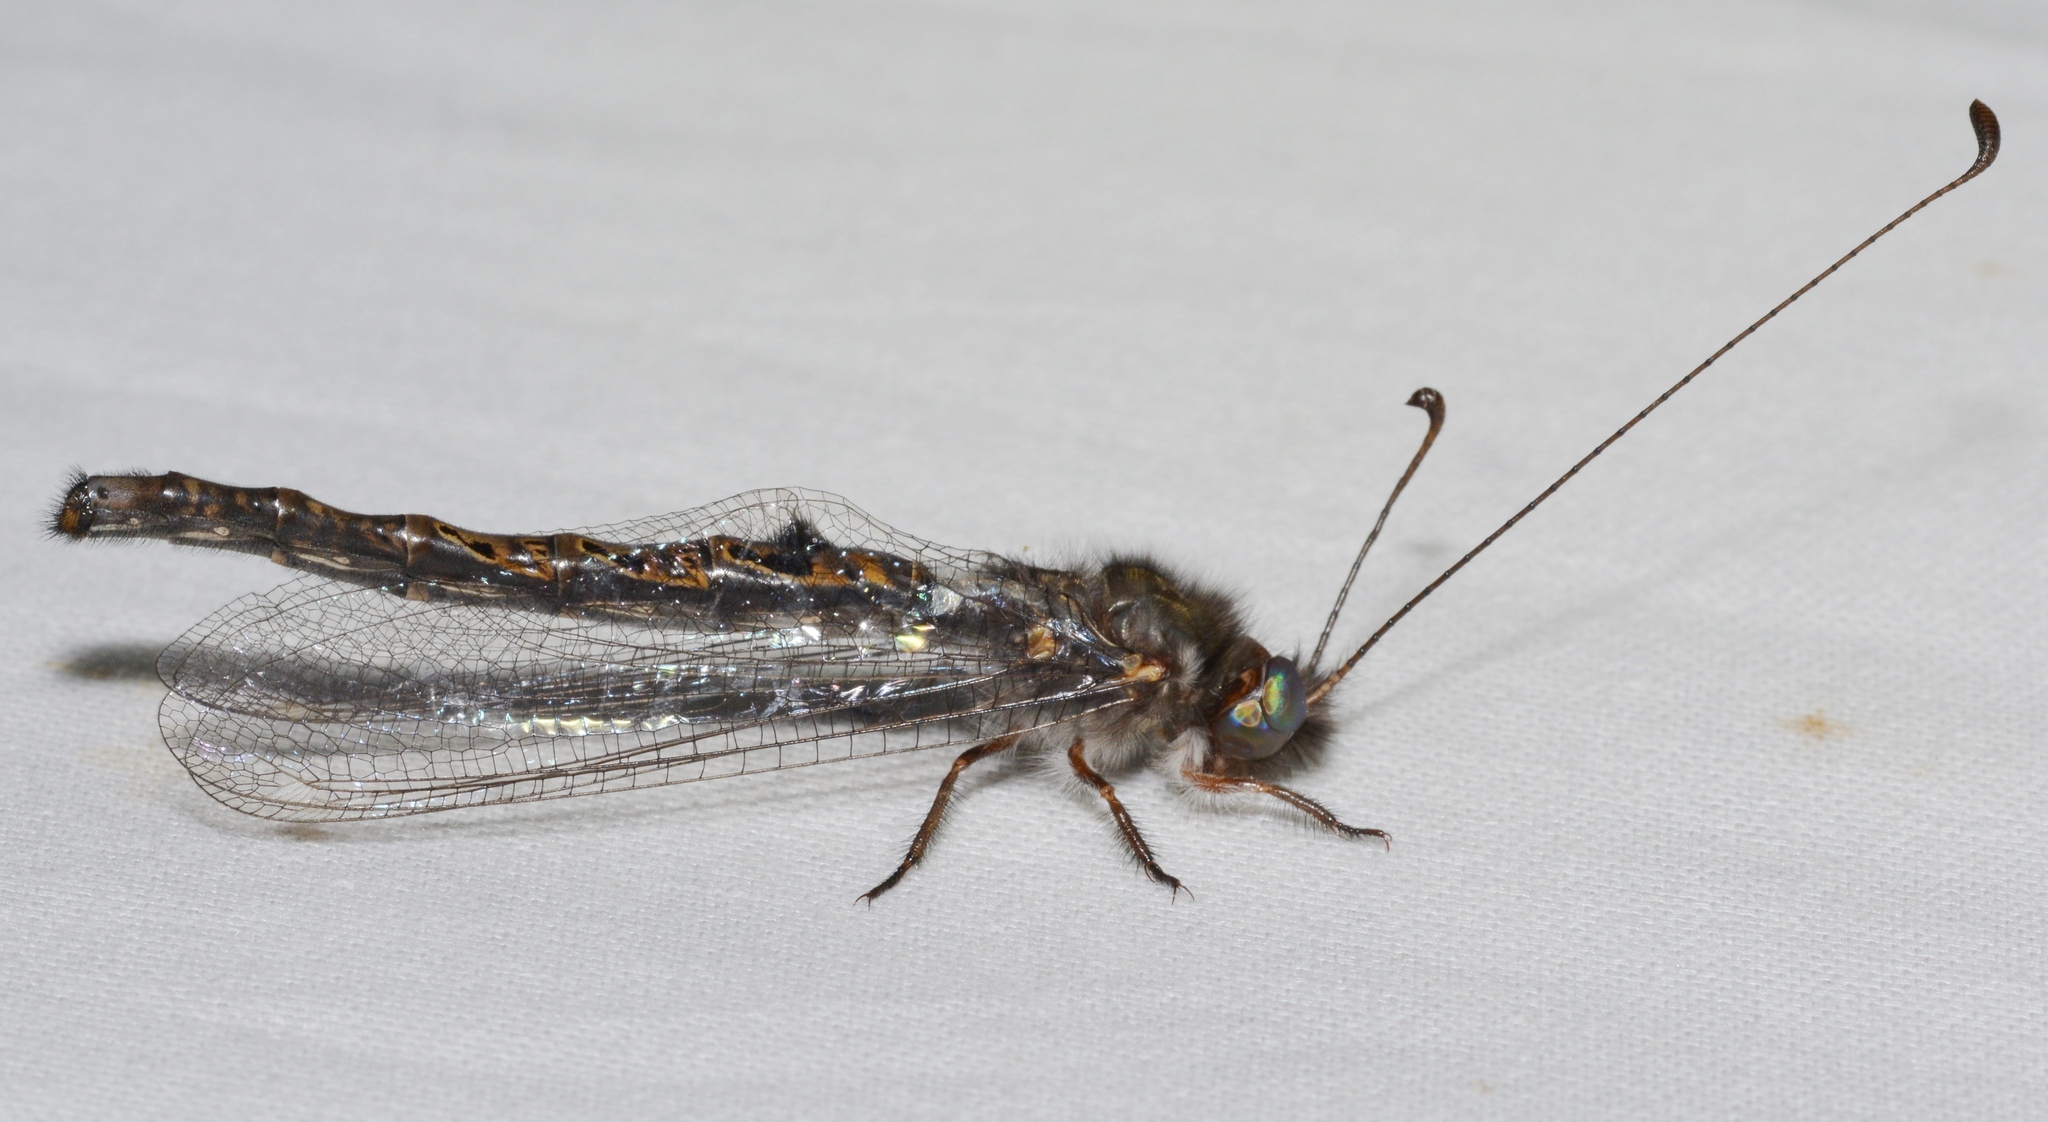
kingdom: Animalia
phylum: Arthropoda
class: Insecta
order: Neuroptera
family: Ascalaphidae
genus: Ululodes
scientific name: Ululodes quadripunctatus
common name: Four-spotted owlfly
